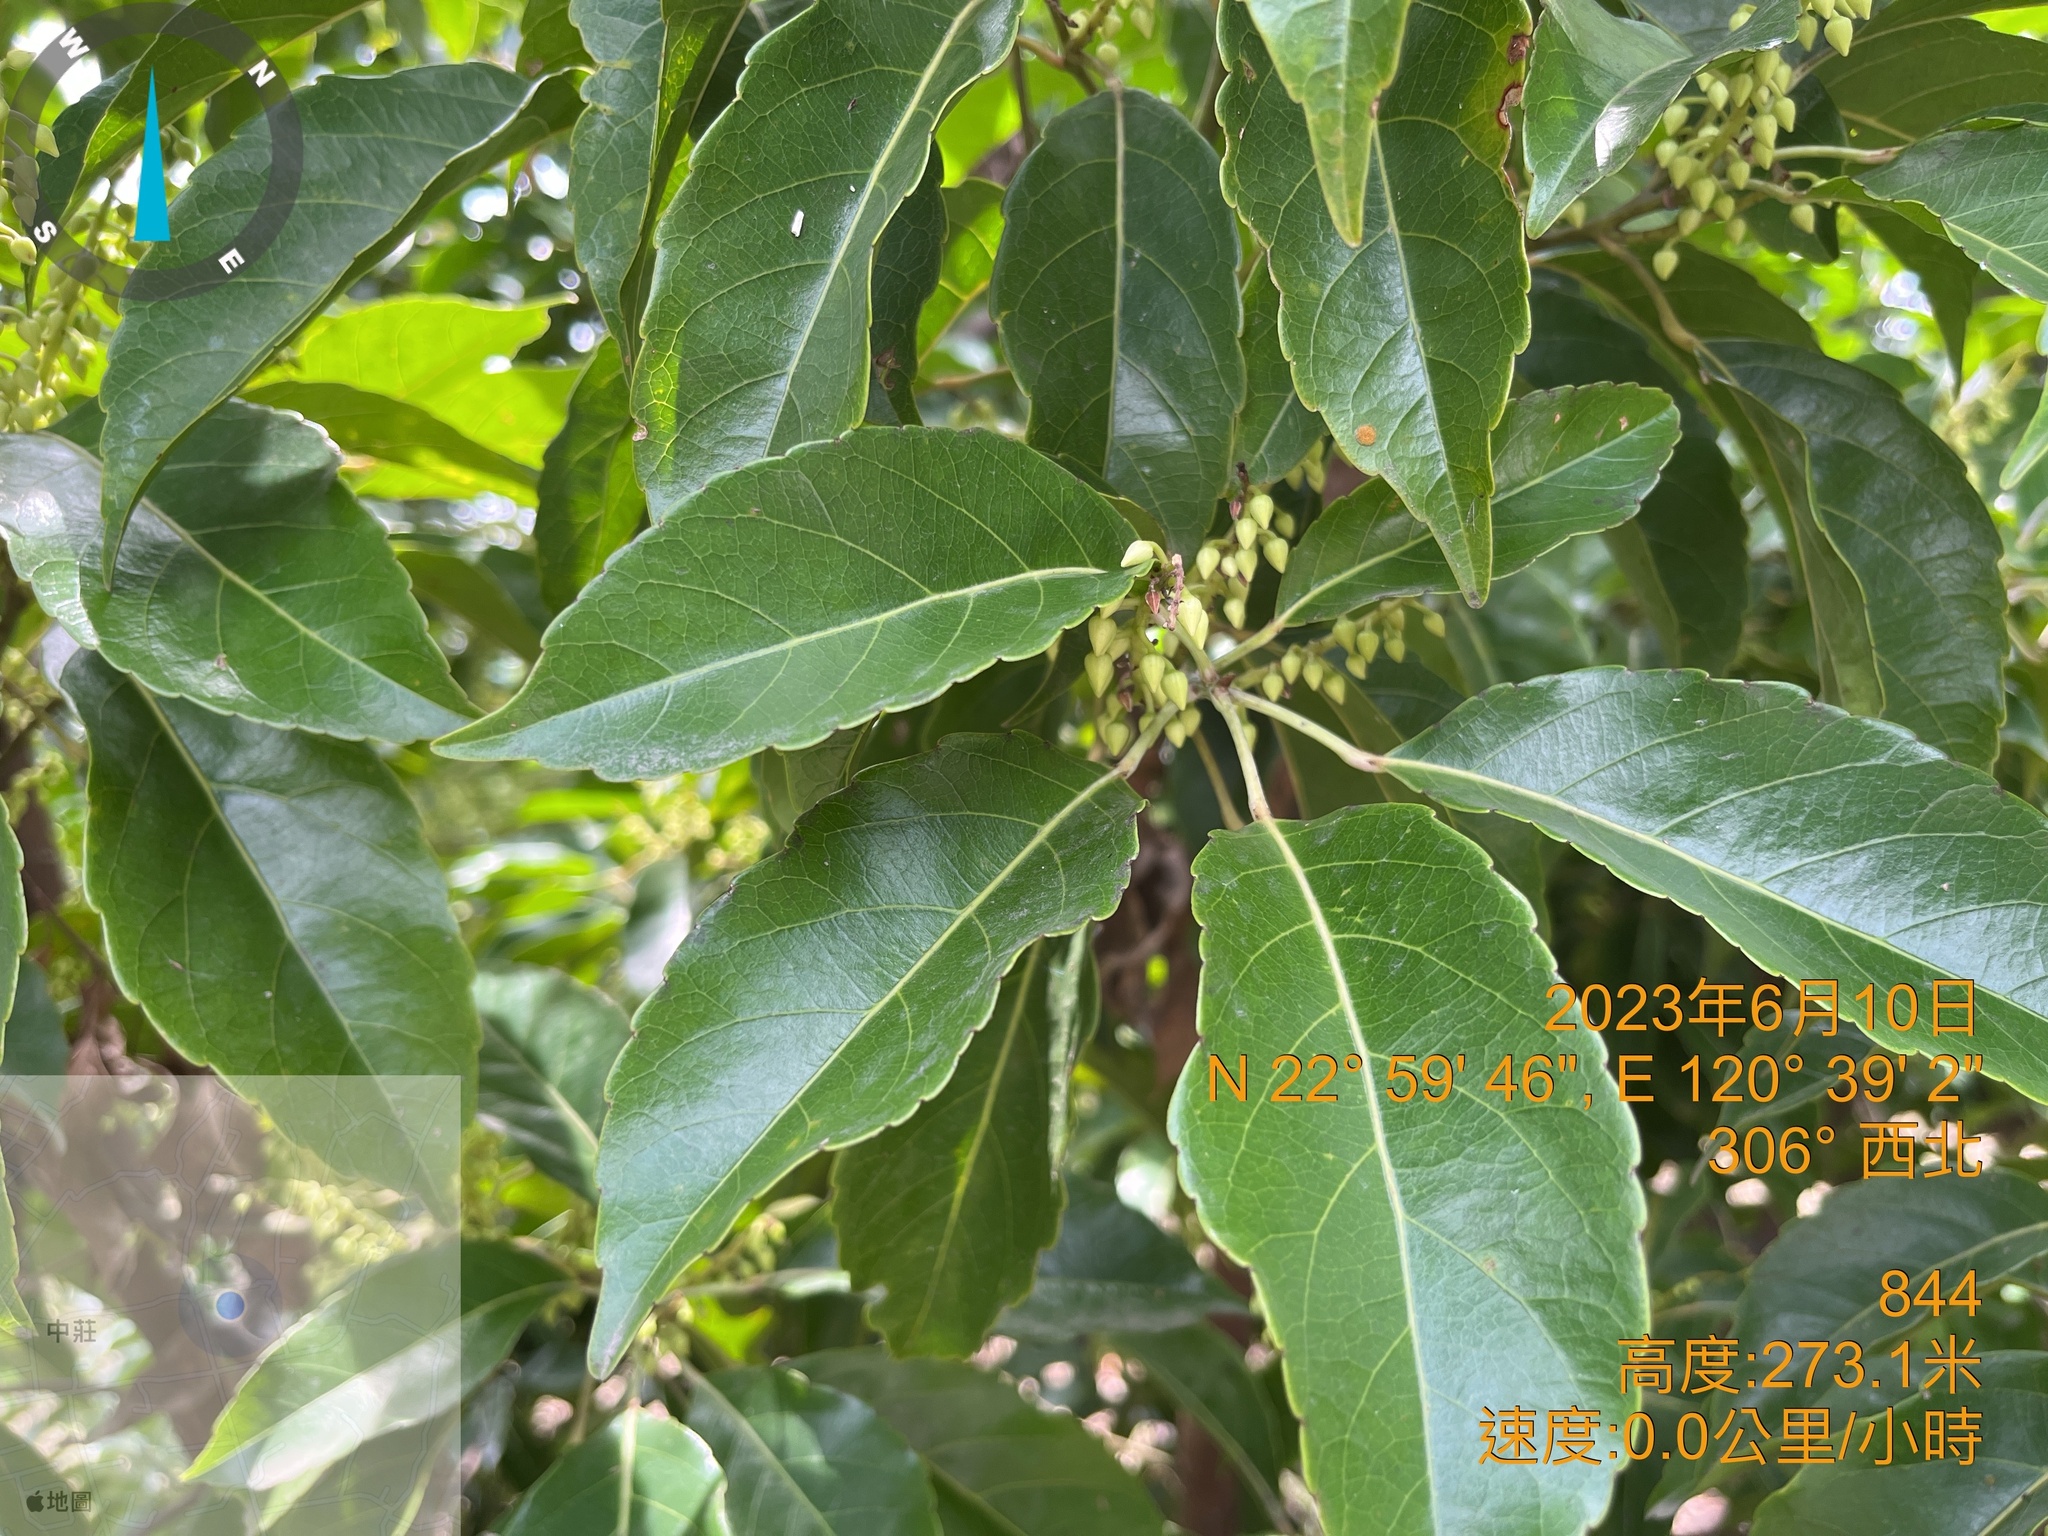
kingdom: Plantae
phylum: Tracheophyta
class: Magnoliopsida
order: Oxalidales
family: Elaeocarpaceae
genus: Elaeocarpus
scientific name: Elaeocarpus serratus
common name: Ceylon-olive
